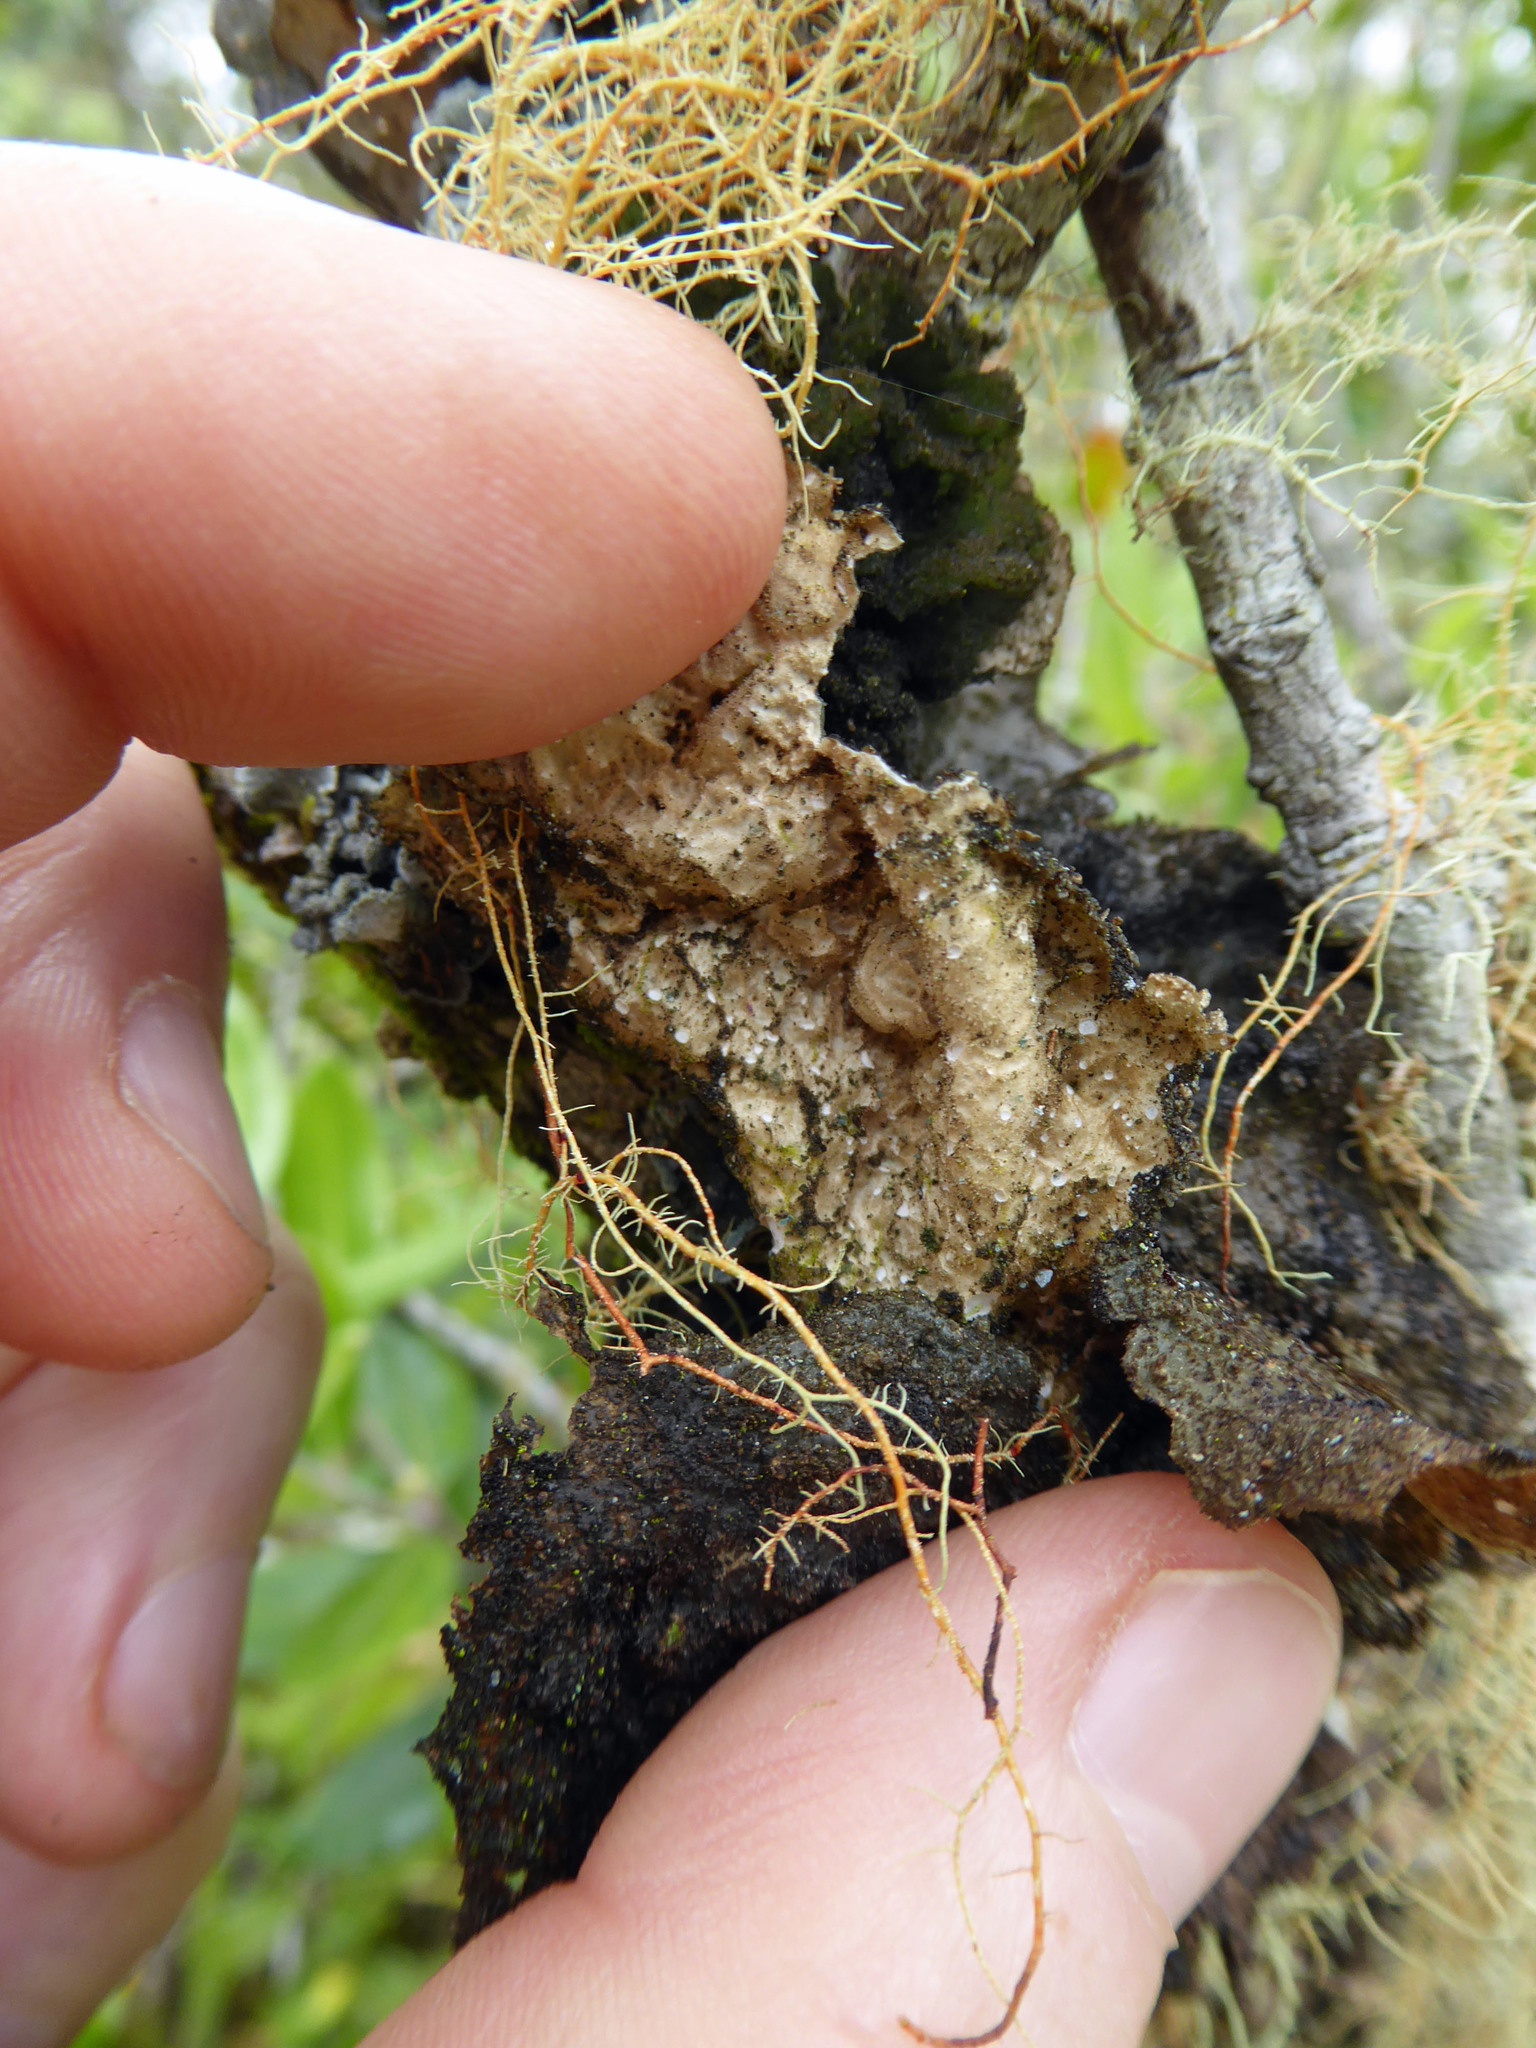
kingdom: Fungi
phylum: Ascomycota
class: Lecanoromycetes
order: Peltigerales
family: Lobariaceae
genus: Sticta
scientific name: Sticta fuliginosa
